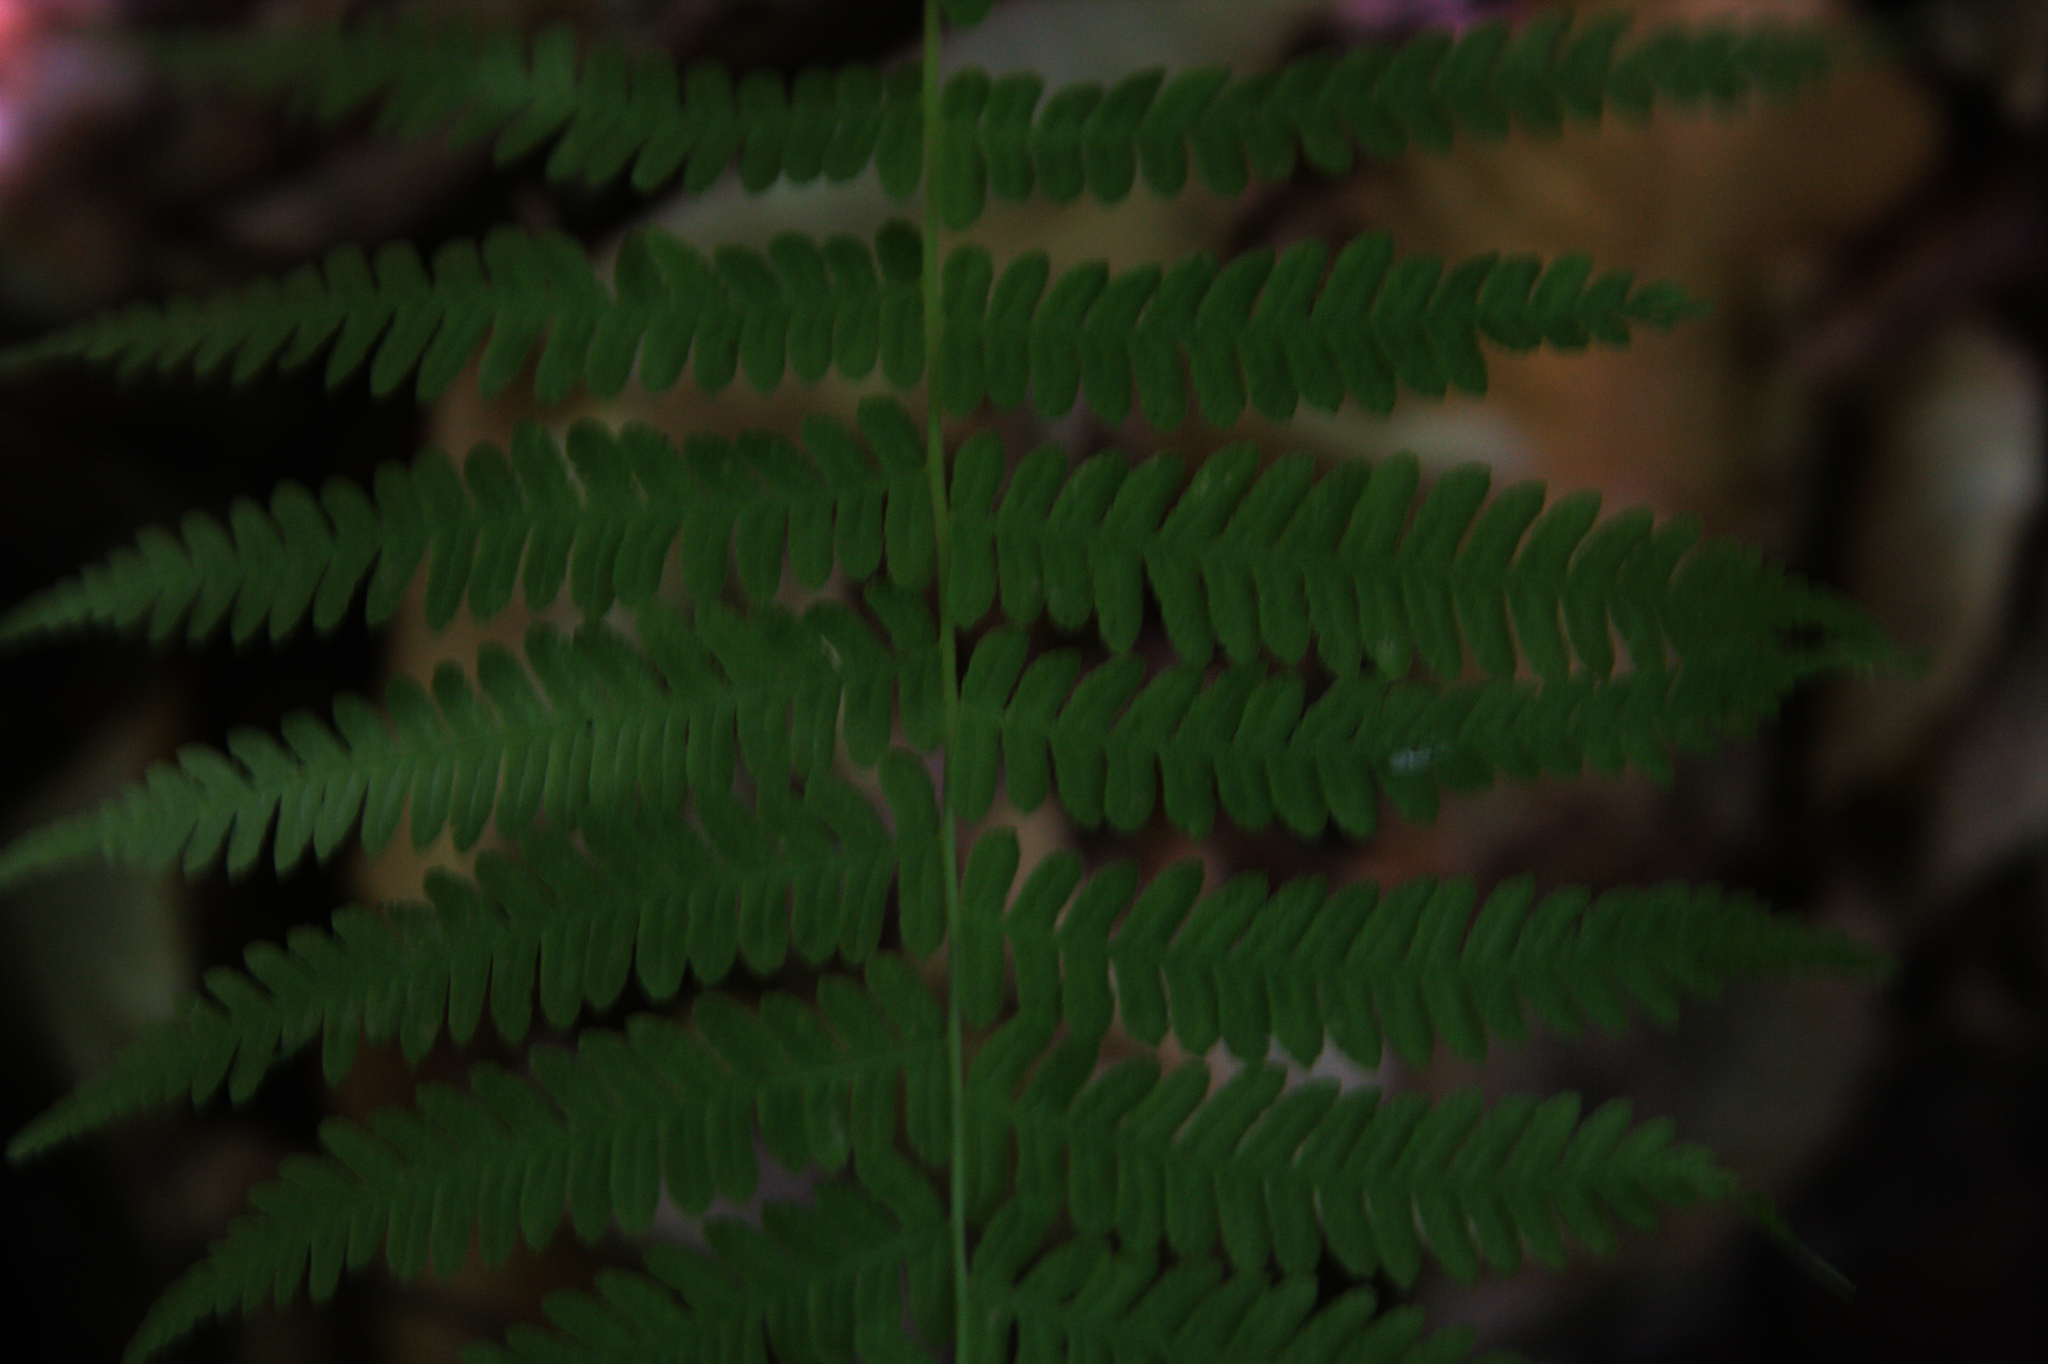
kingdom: Plantae
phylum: Tracheophyta
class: Polypodiopsida
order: Polypodiales
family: Thelypteridaceae
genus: Amauropelta
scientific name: Amauropelta noveboracensis
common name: New york fern
